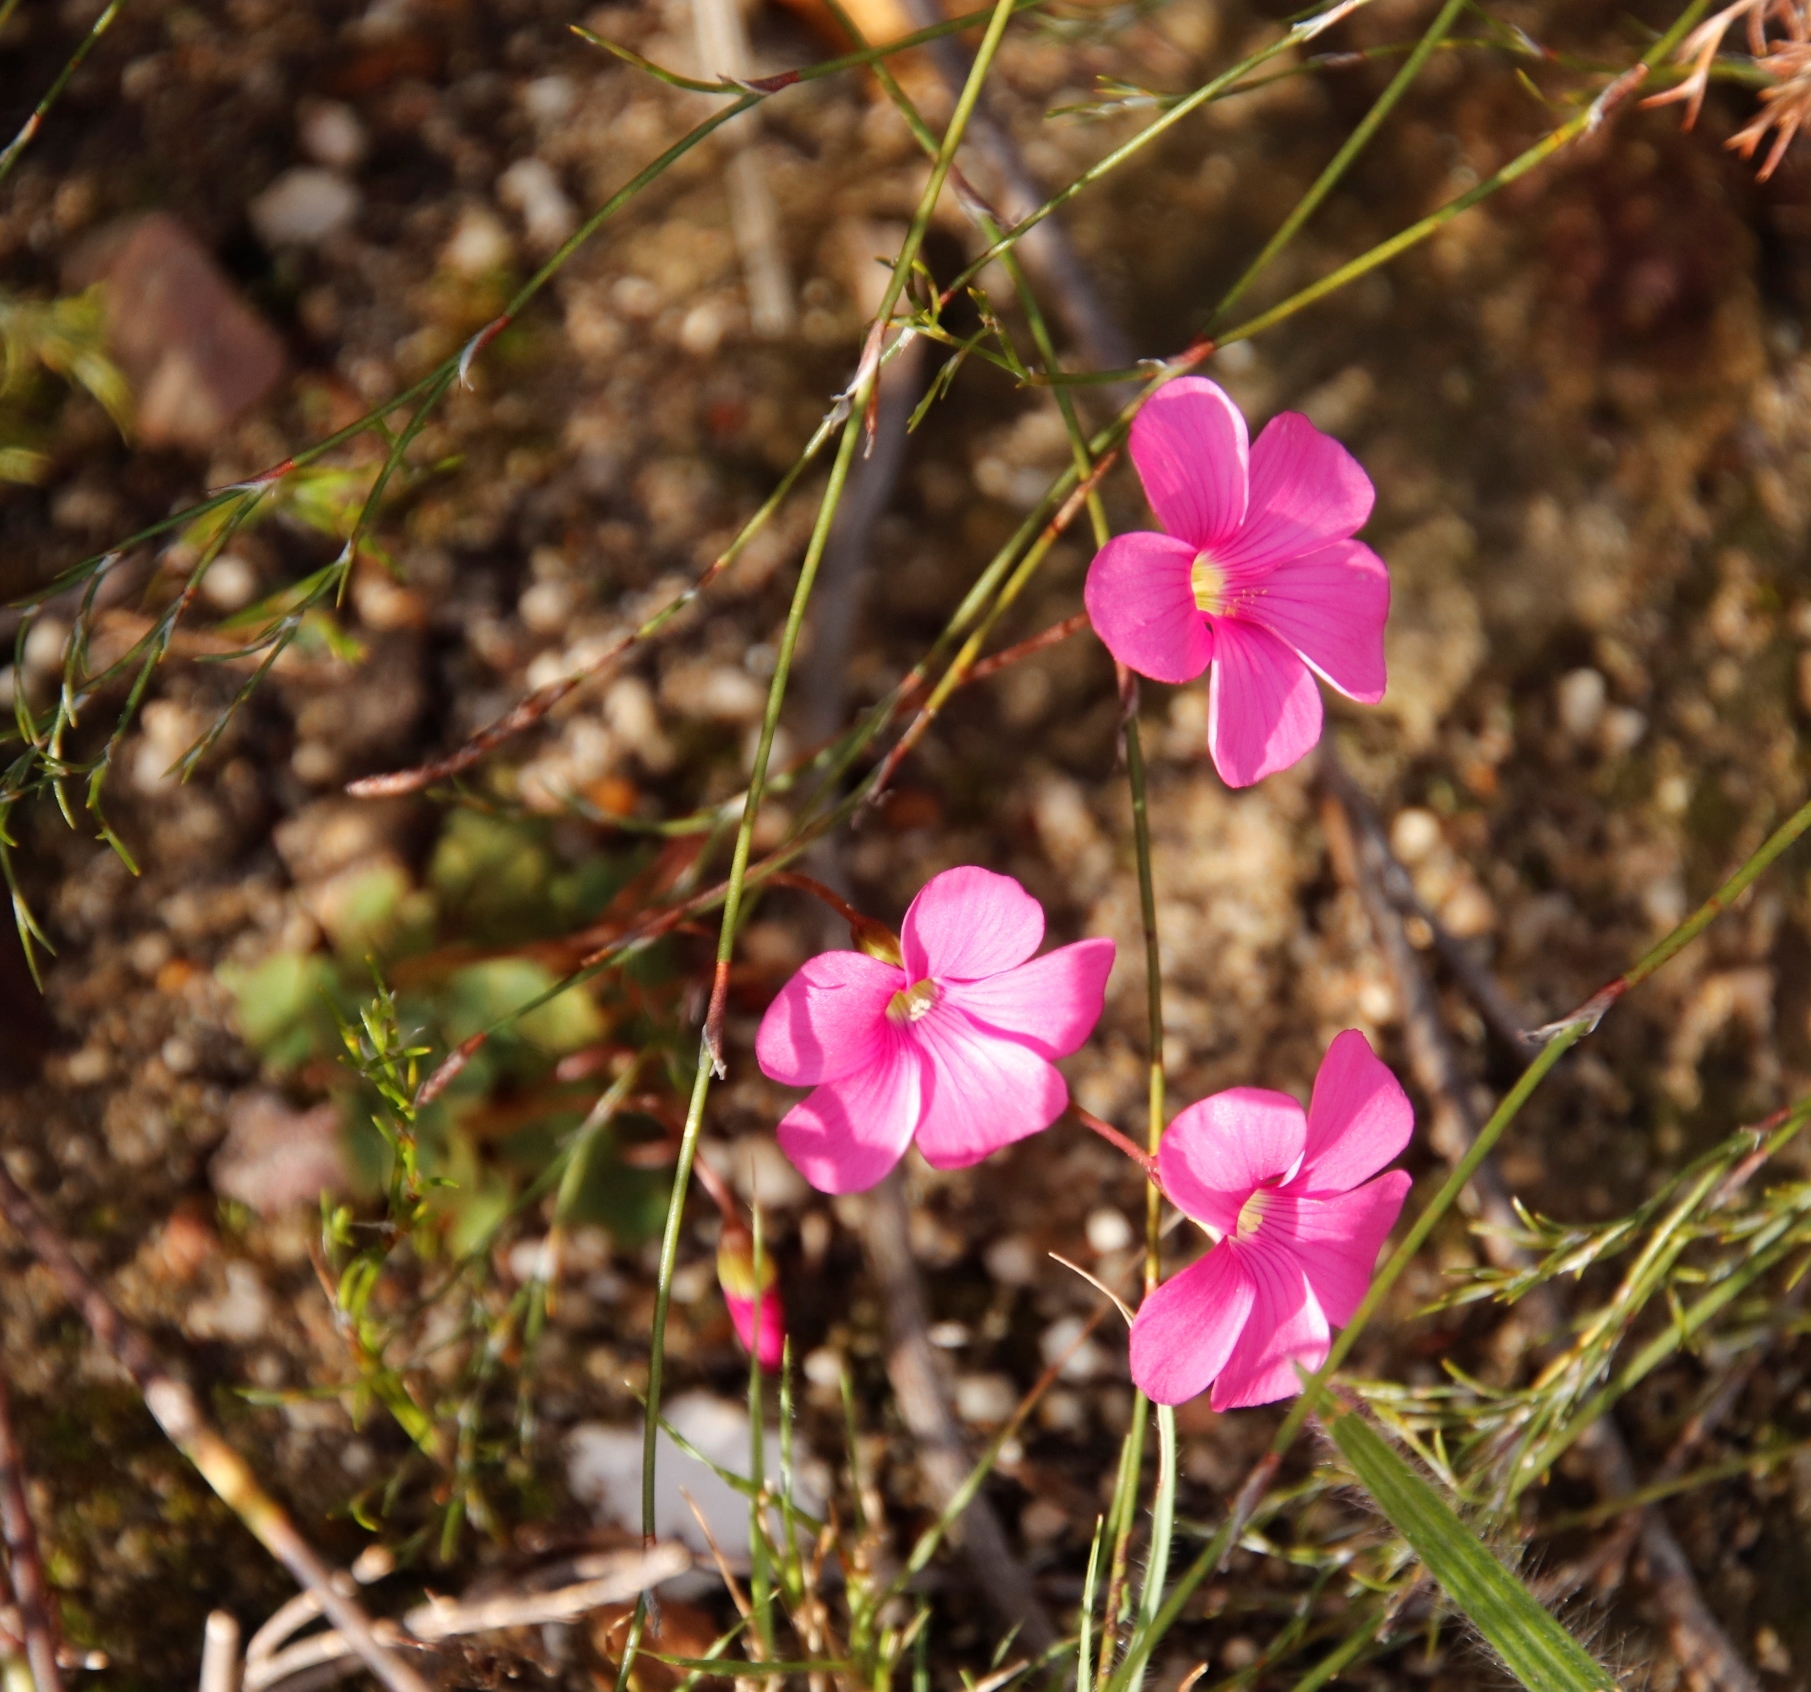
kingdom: Plantae
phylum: Tracheophyta
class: Magnoliopsida
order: Oxalidales
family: Oxalidaceae
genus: Oxalis
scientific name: Oxalis commutata
